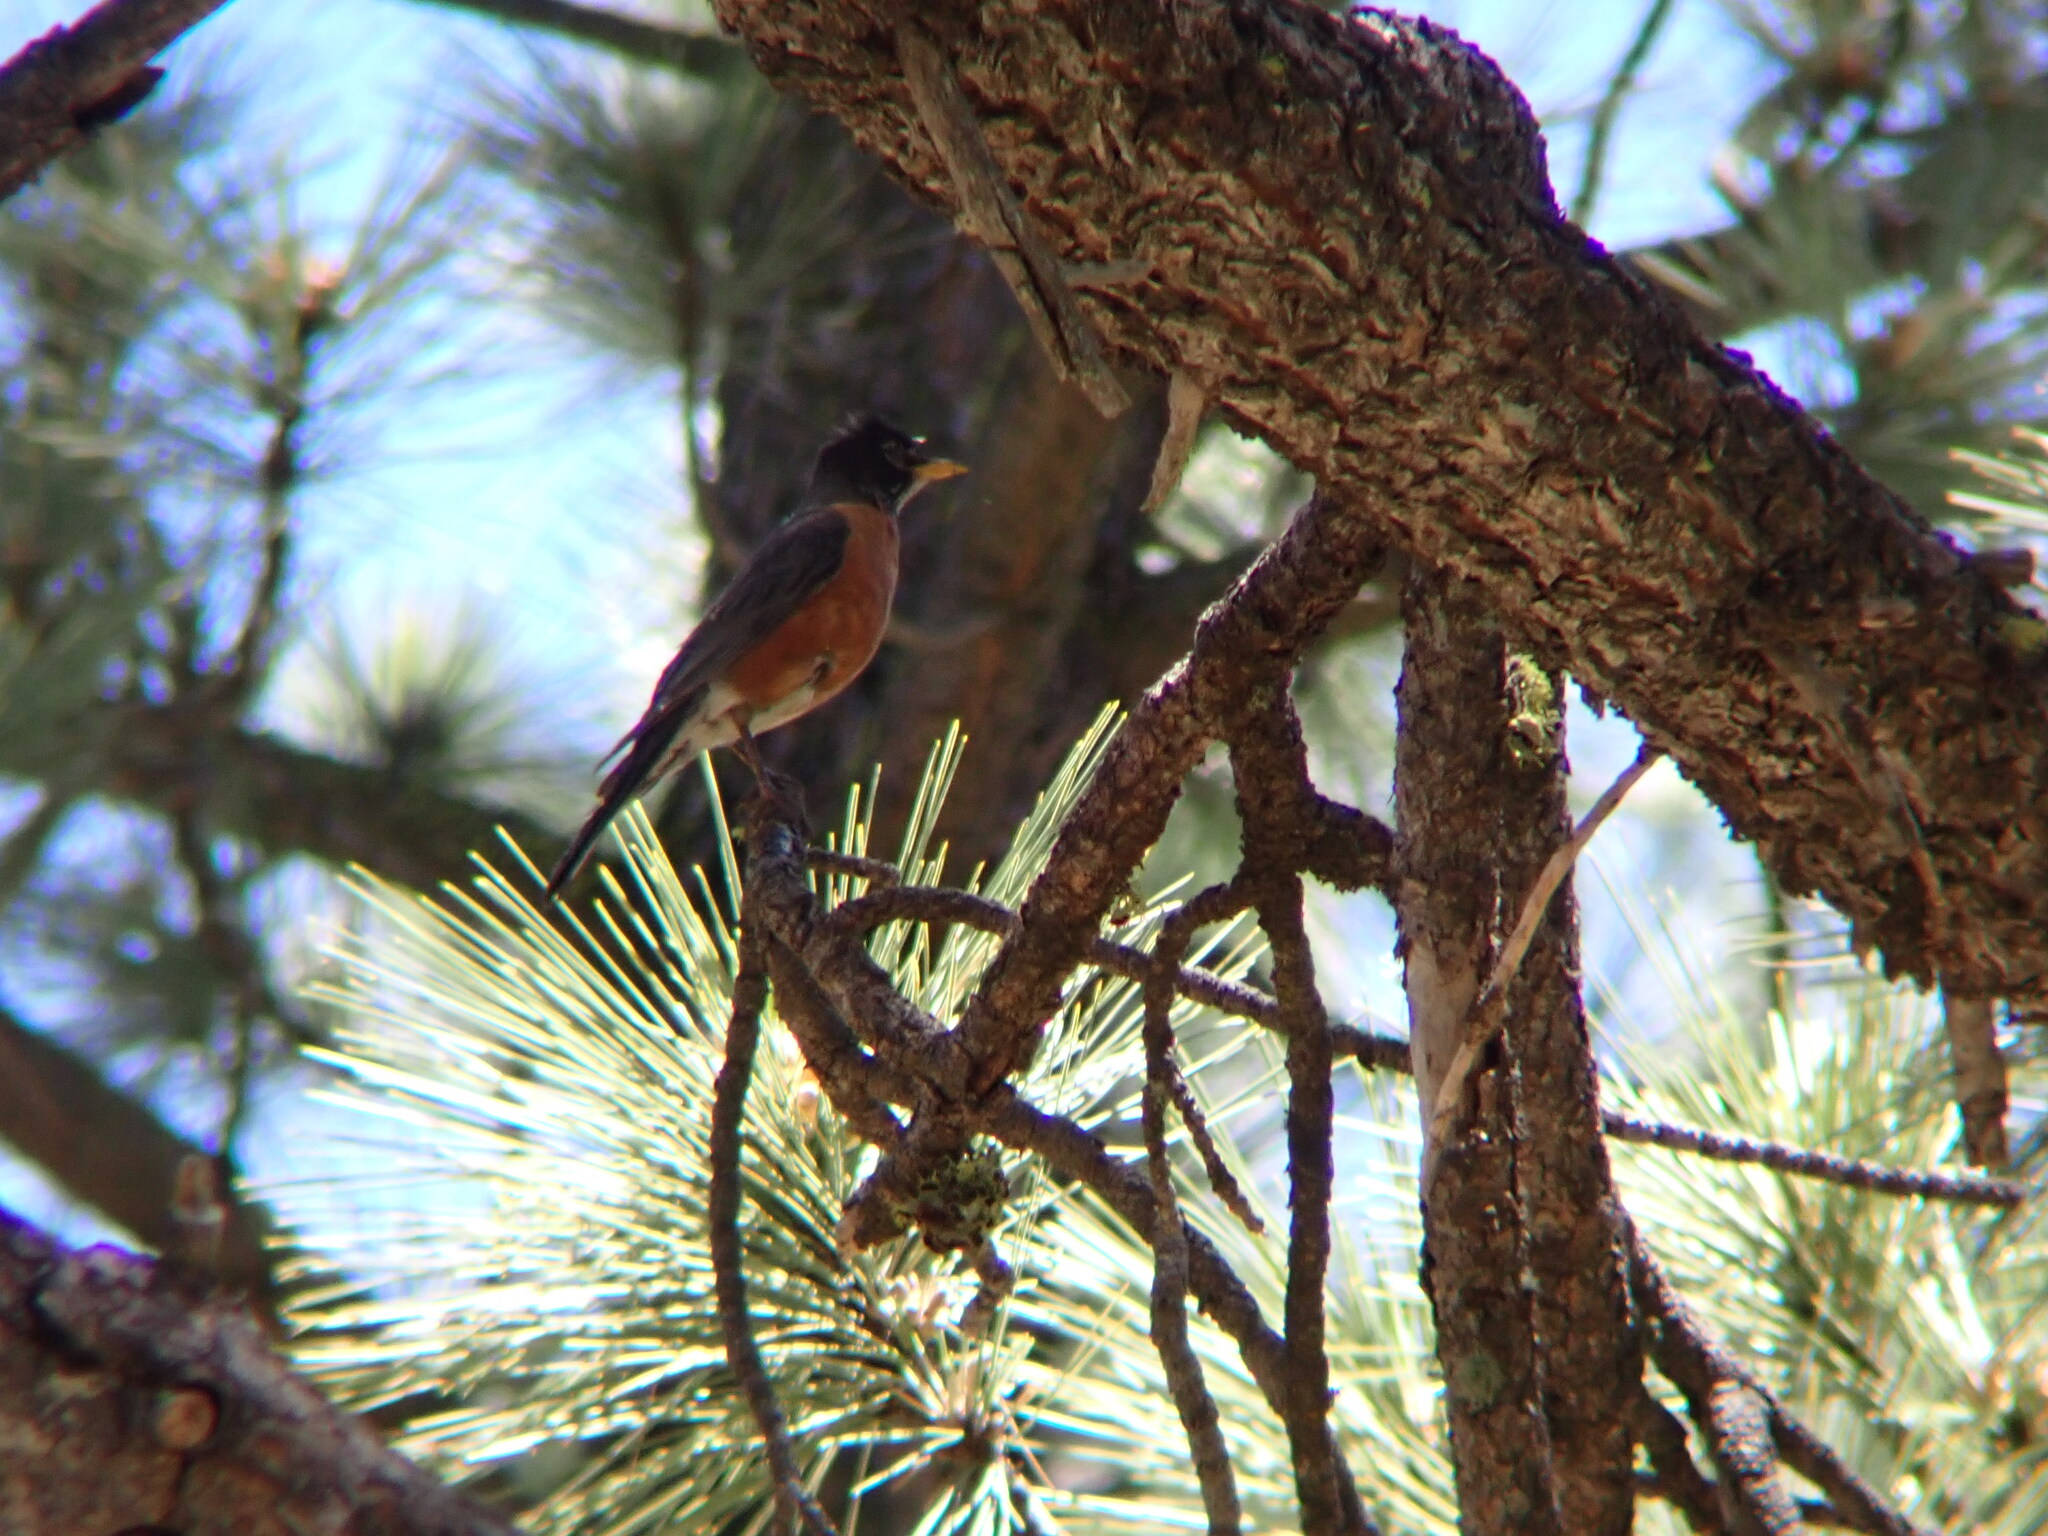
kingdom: Animalia
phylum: Chordata
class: Aves
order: Passeriformes
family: Turdidae
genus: Turdus
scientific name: Turdus migratorius
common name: American robin
